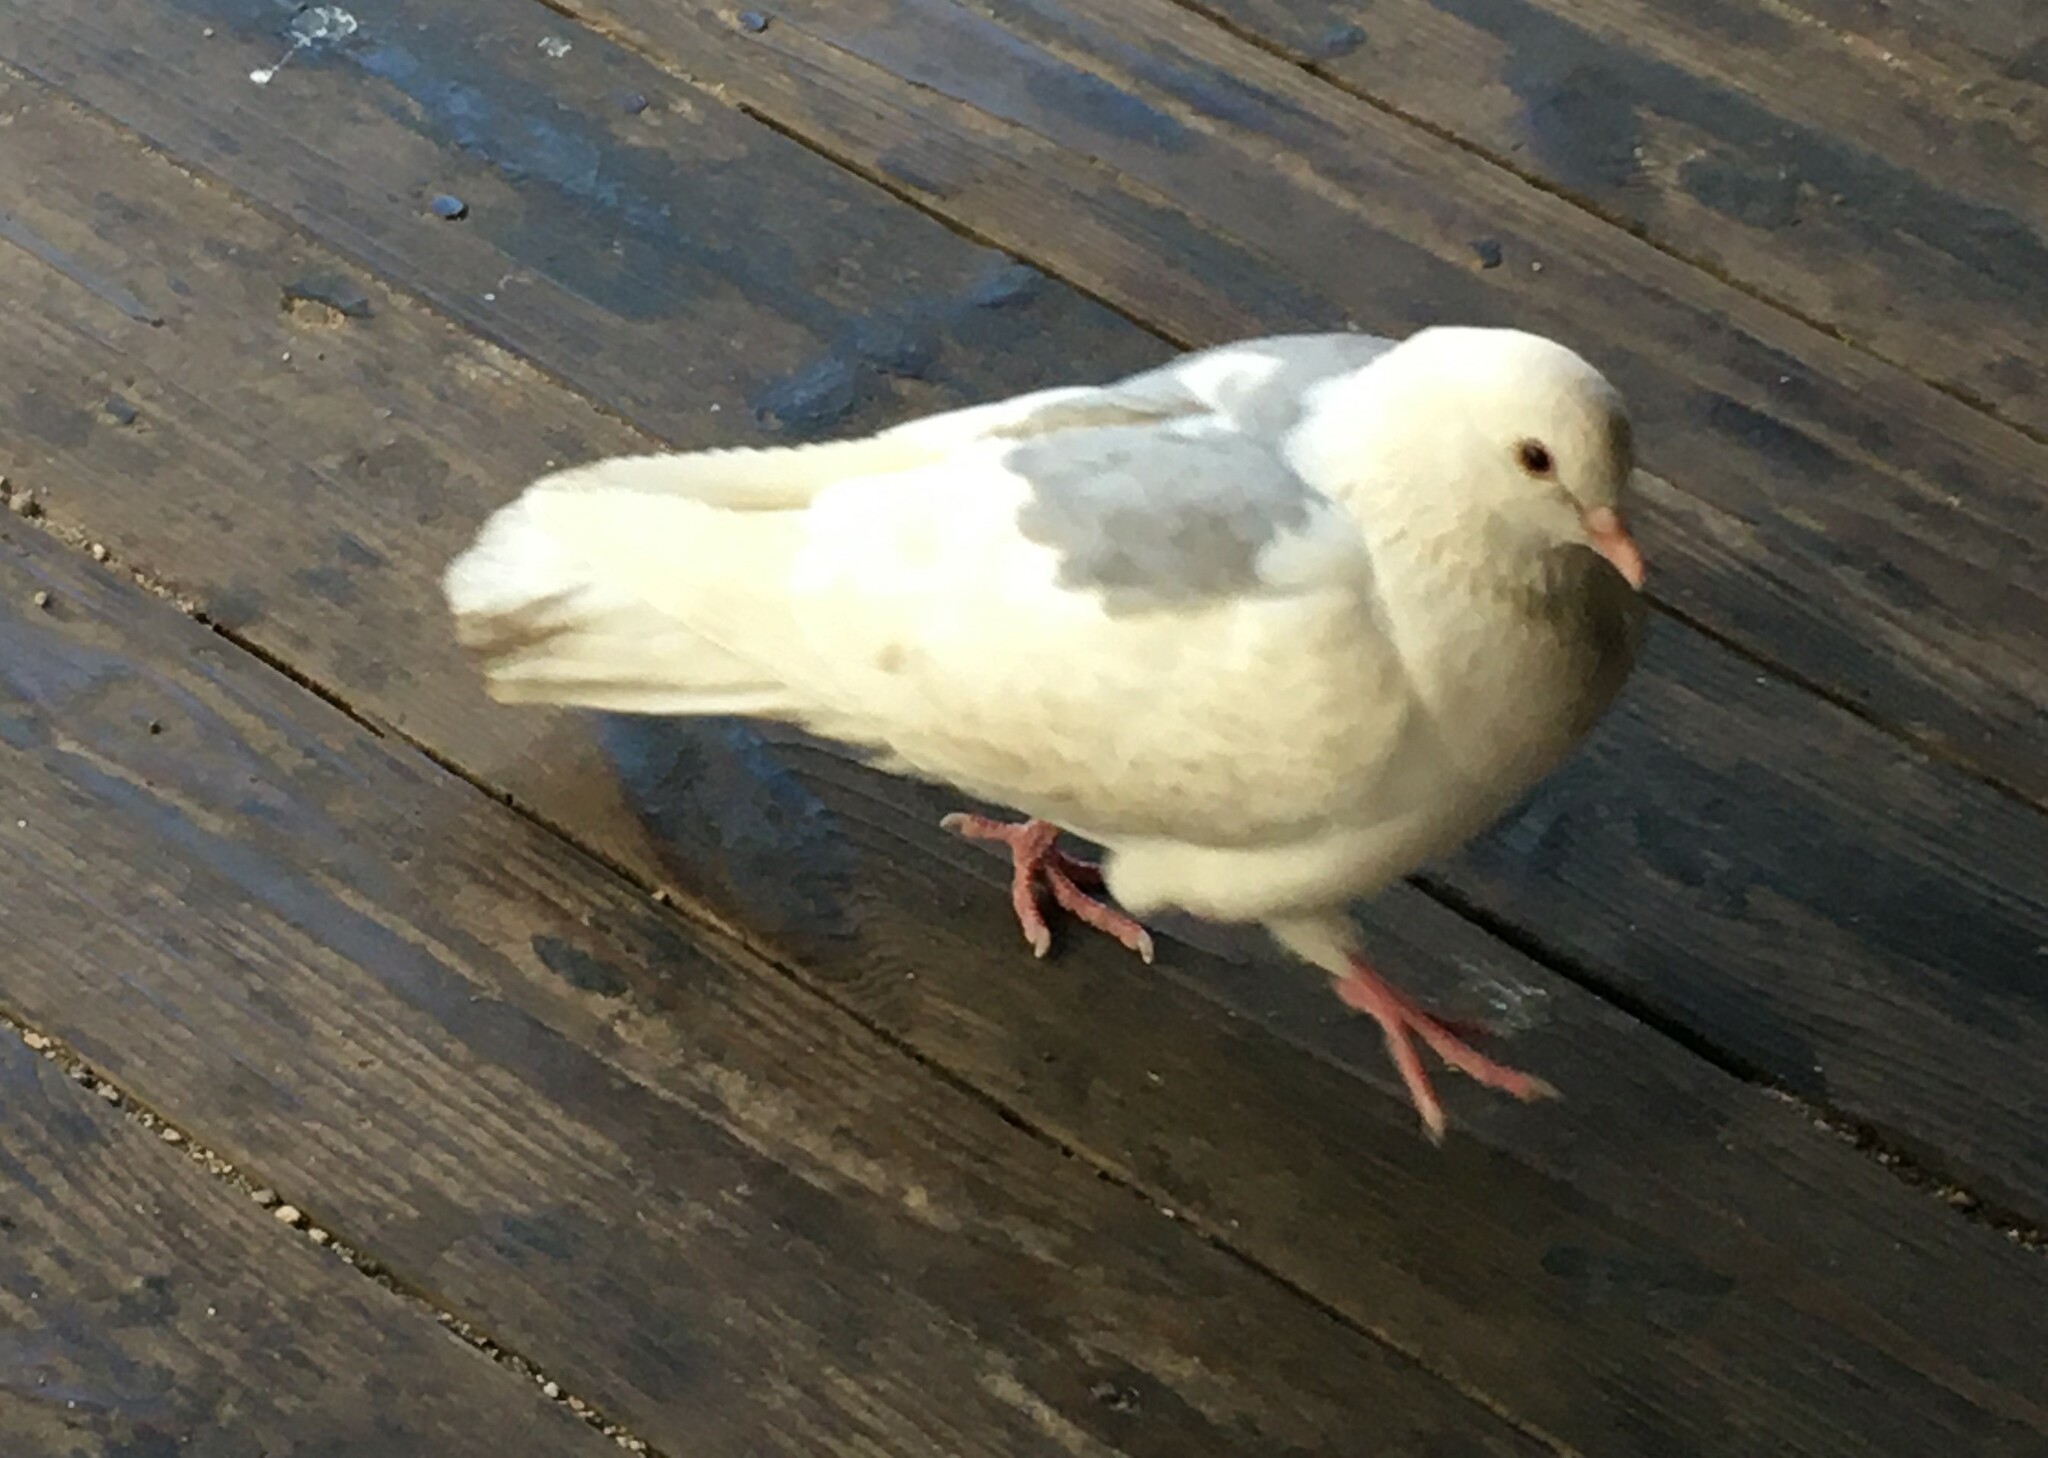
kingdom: Animalia
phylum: Chordata
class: Aves
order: Columbiformes
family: Columbidae
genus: Columba
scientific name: Columba livia
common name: Rock pigeon
